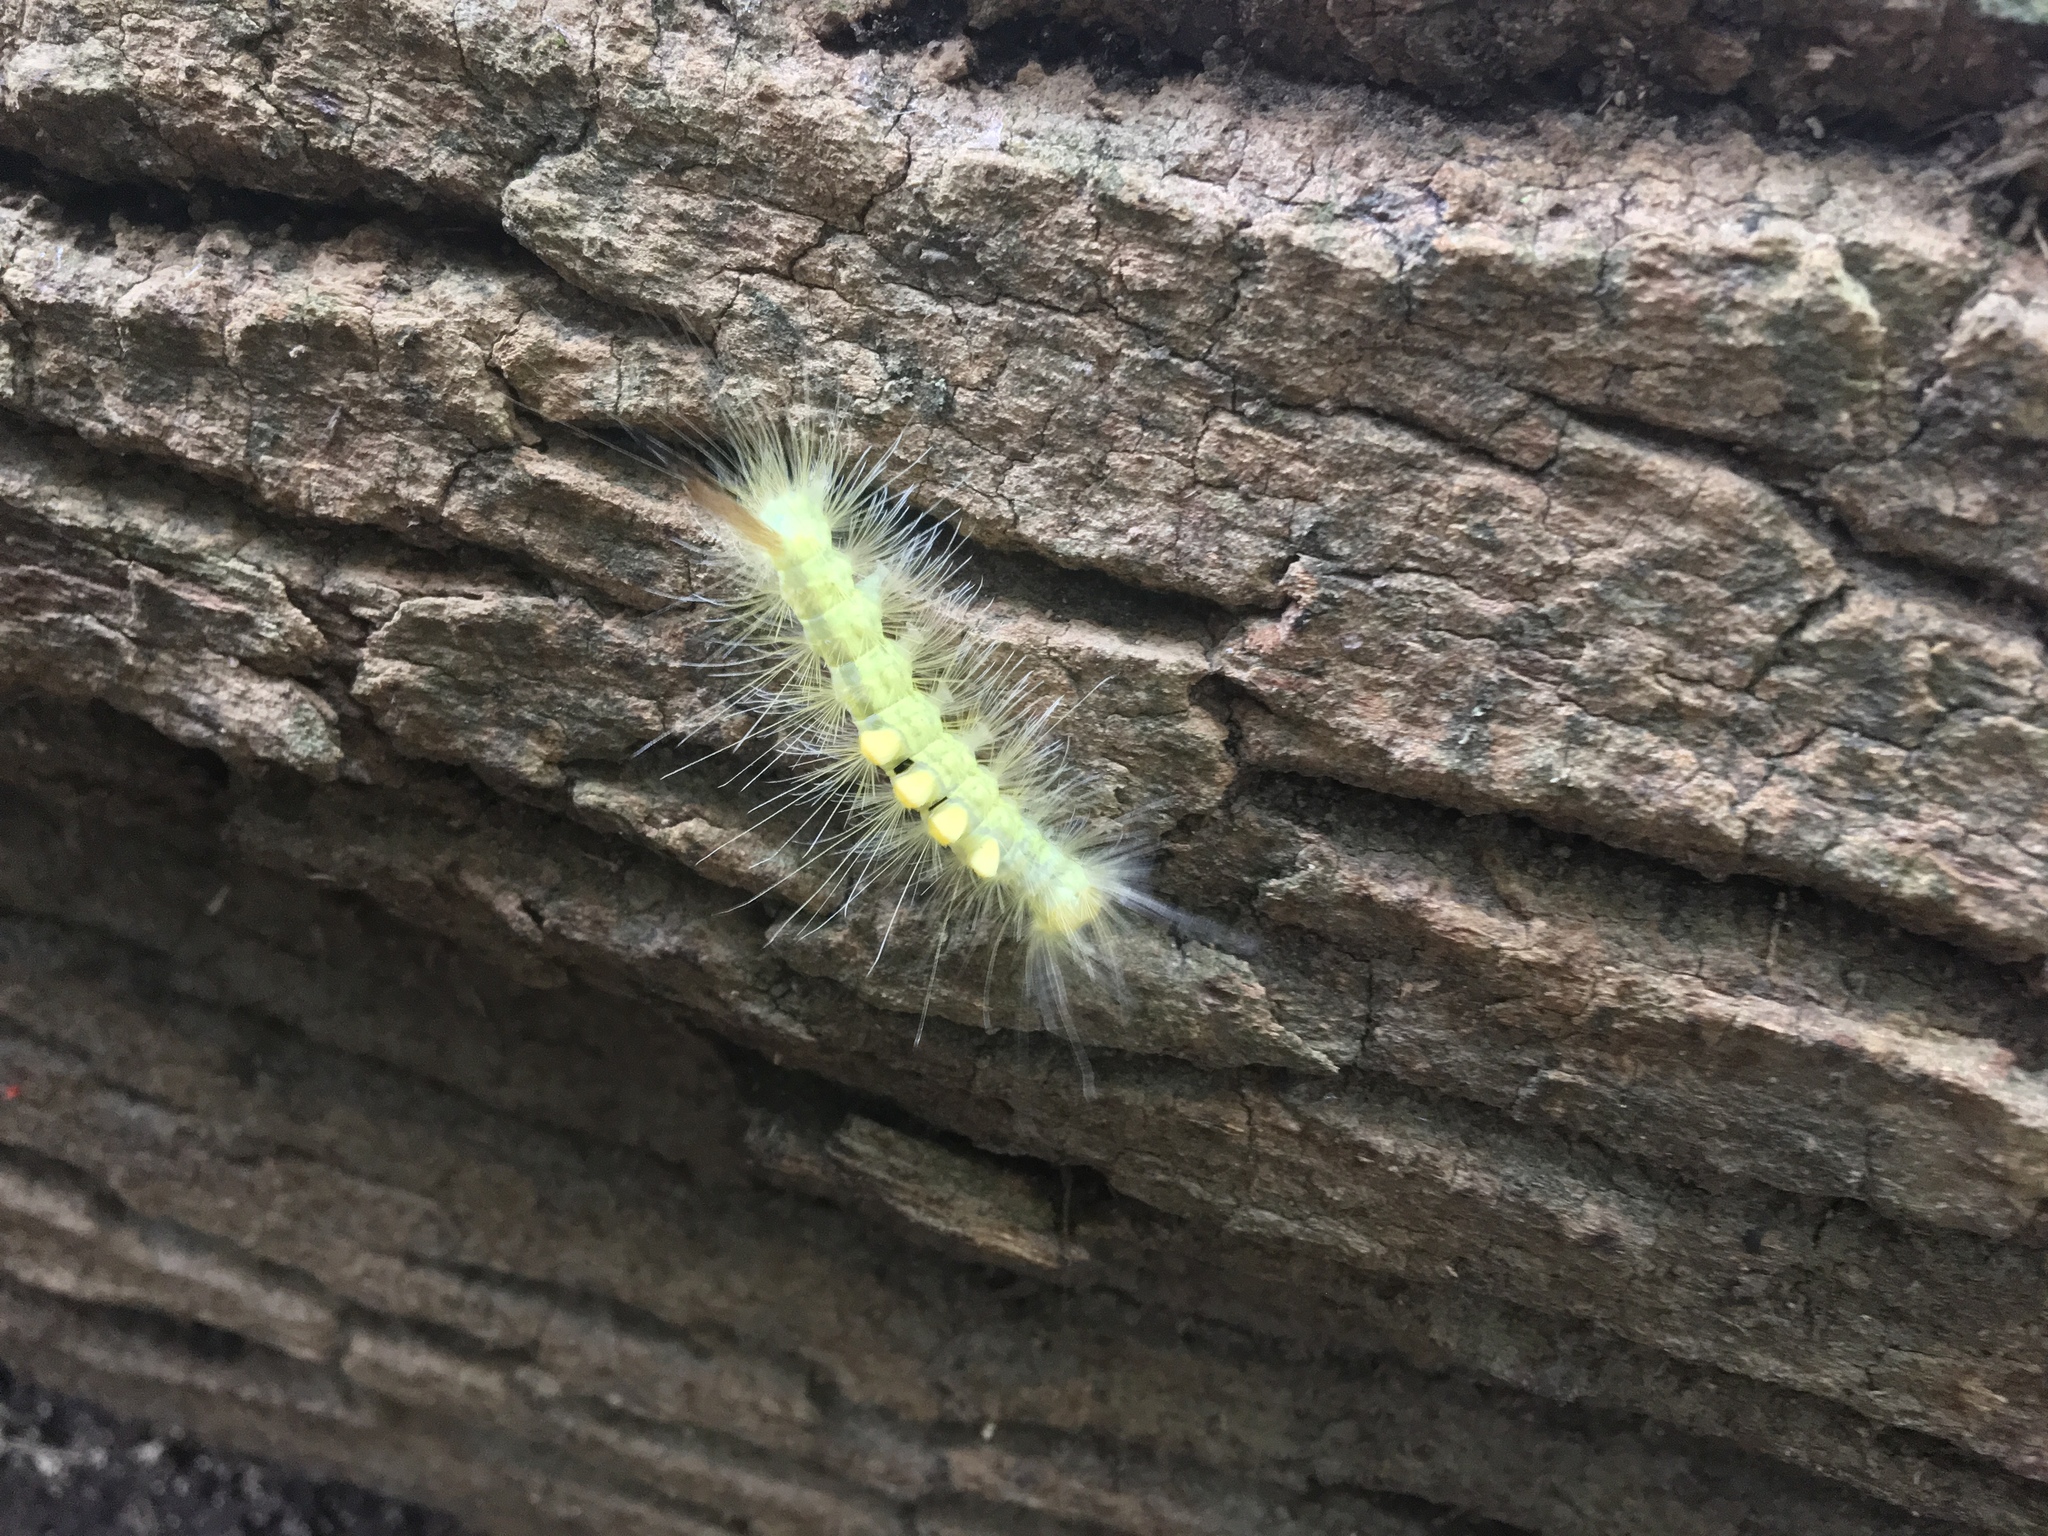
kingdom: Animalia
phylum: Arthropoda
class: Insecta
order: Lepidoptera
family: Erebidae
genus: Orgyia
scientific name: Orgyia definita
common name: Definite tussock moth
